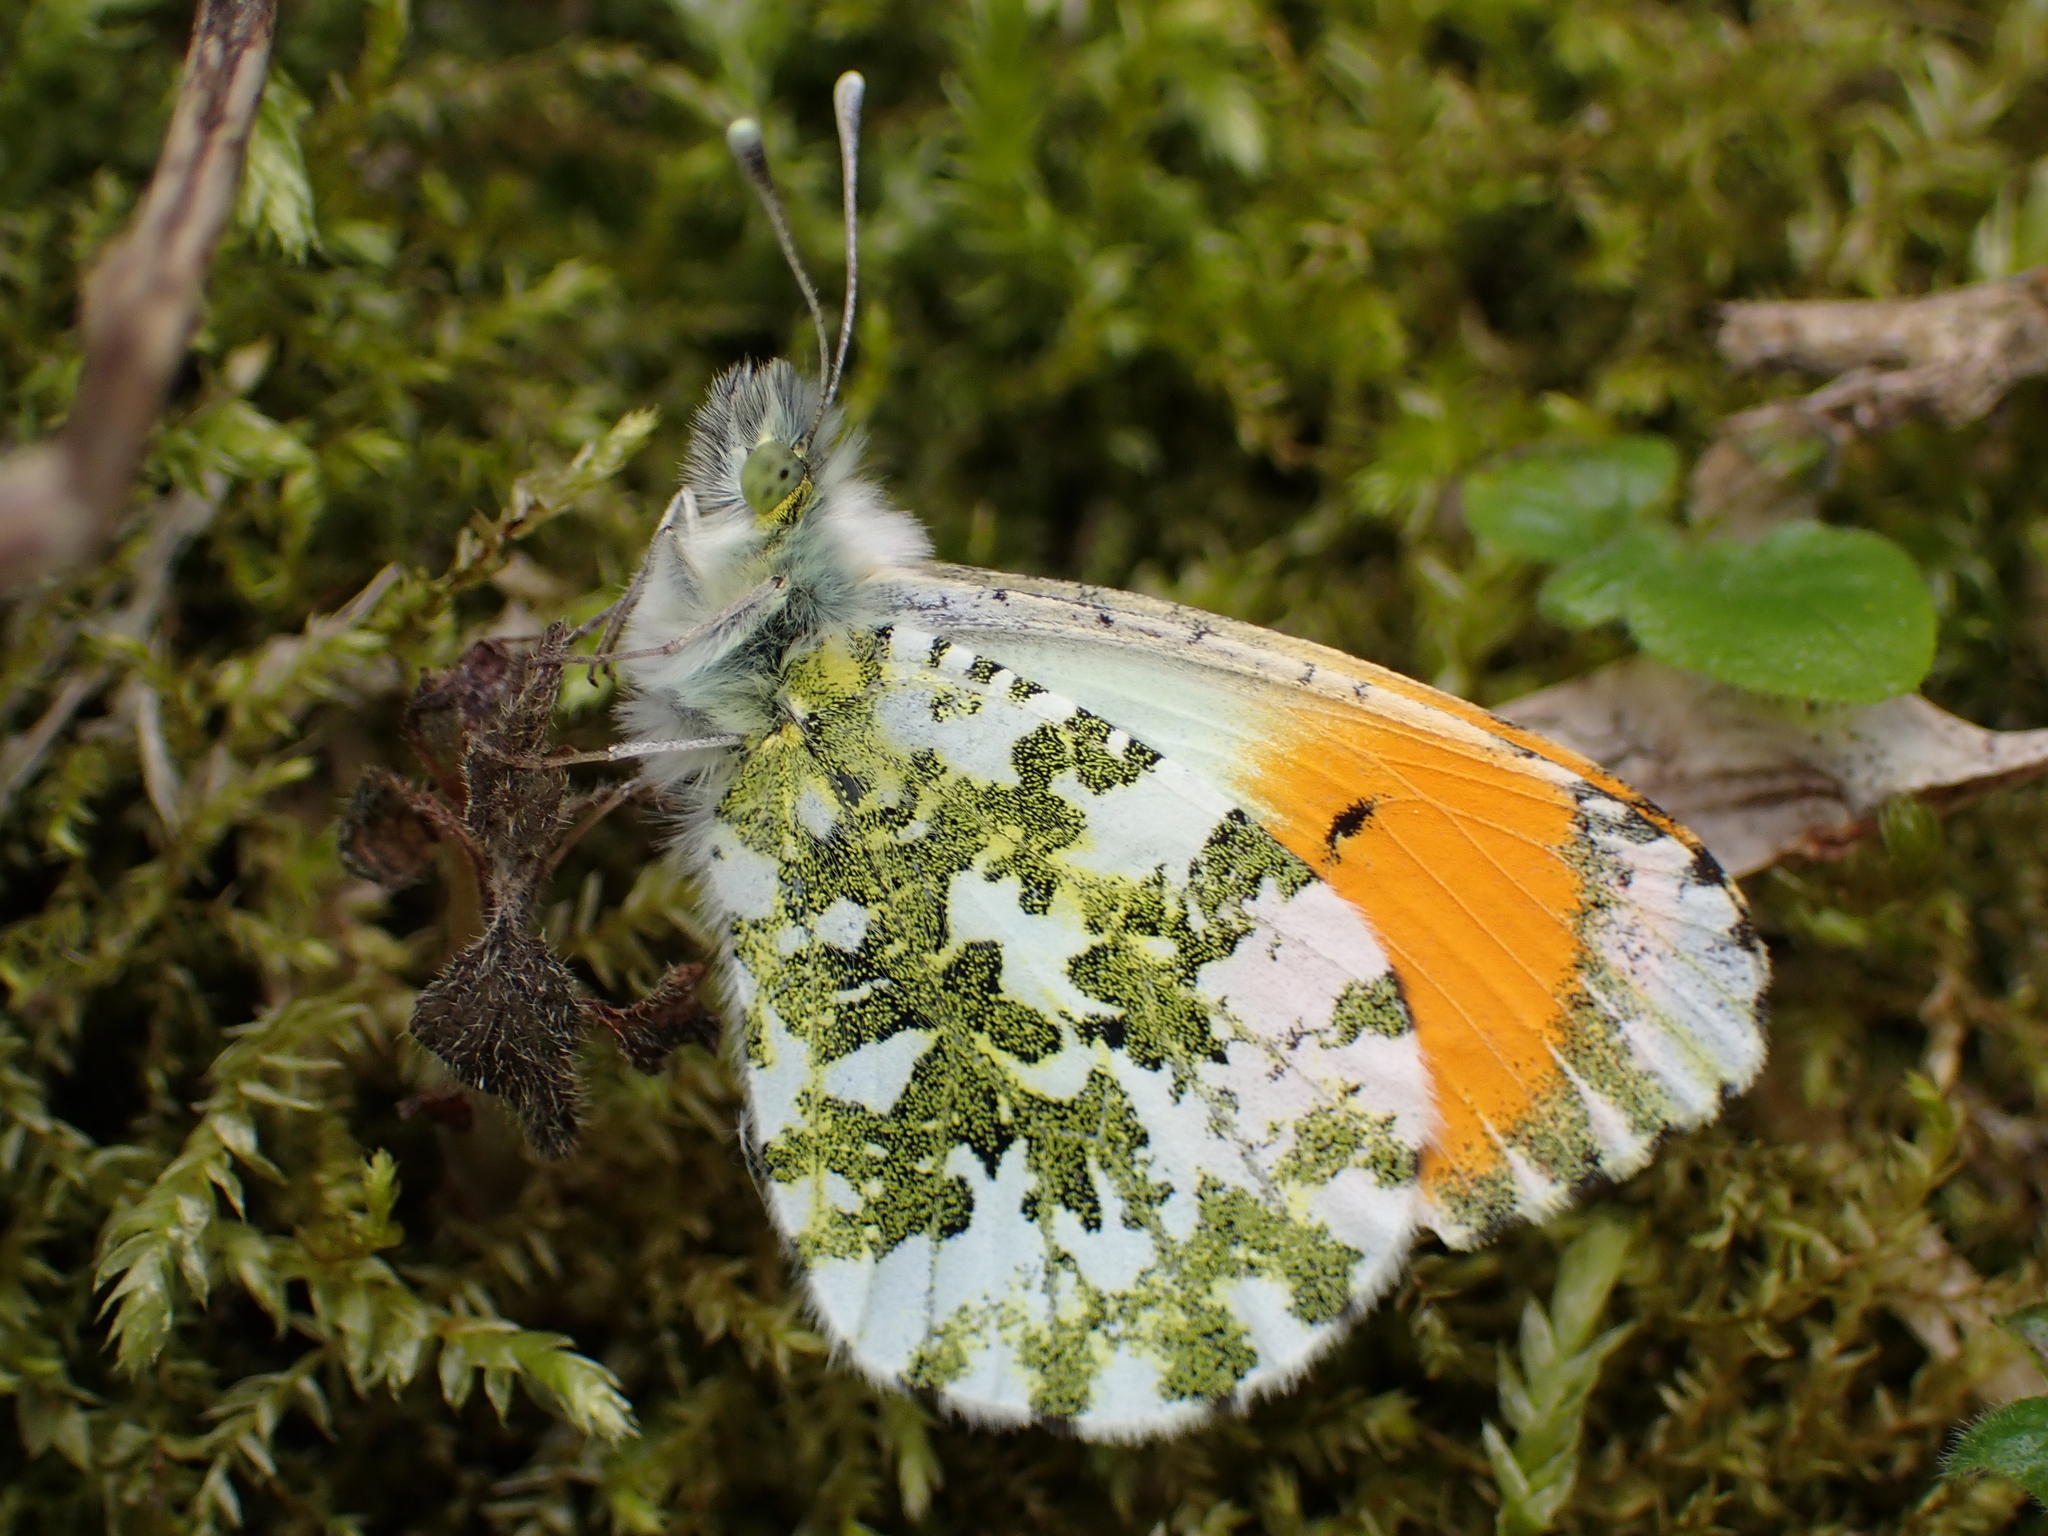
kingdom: Animalia
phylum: Arthropoda
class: Insecta
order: Lepidoptera
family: Pieridae
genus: Anthocharis
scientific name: Anthocharis cardamines
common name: Orange-tip
